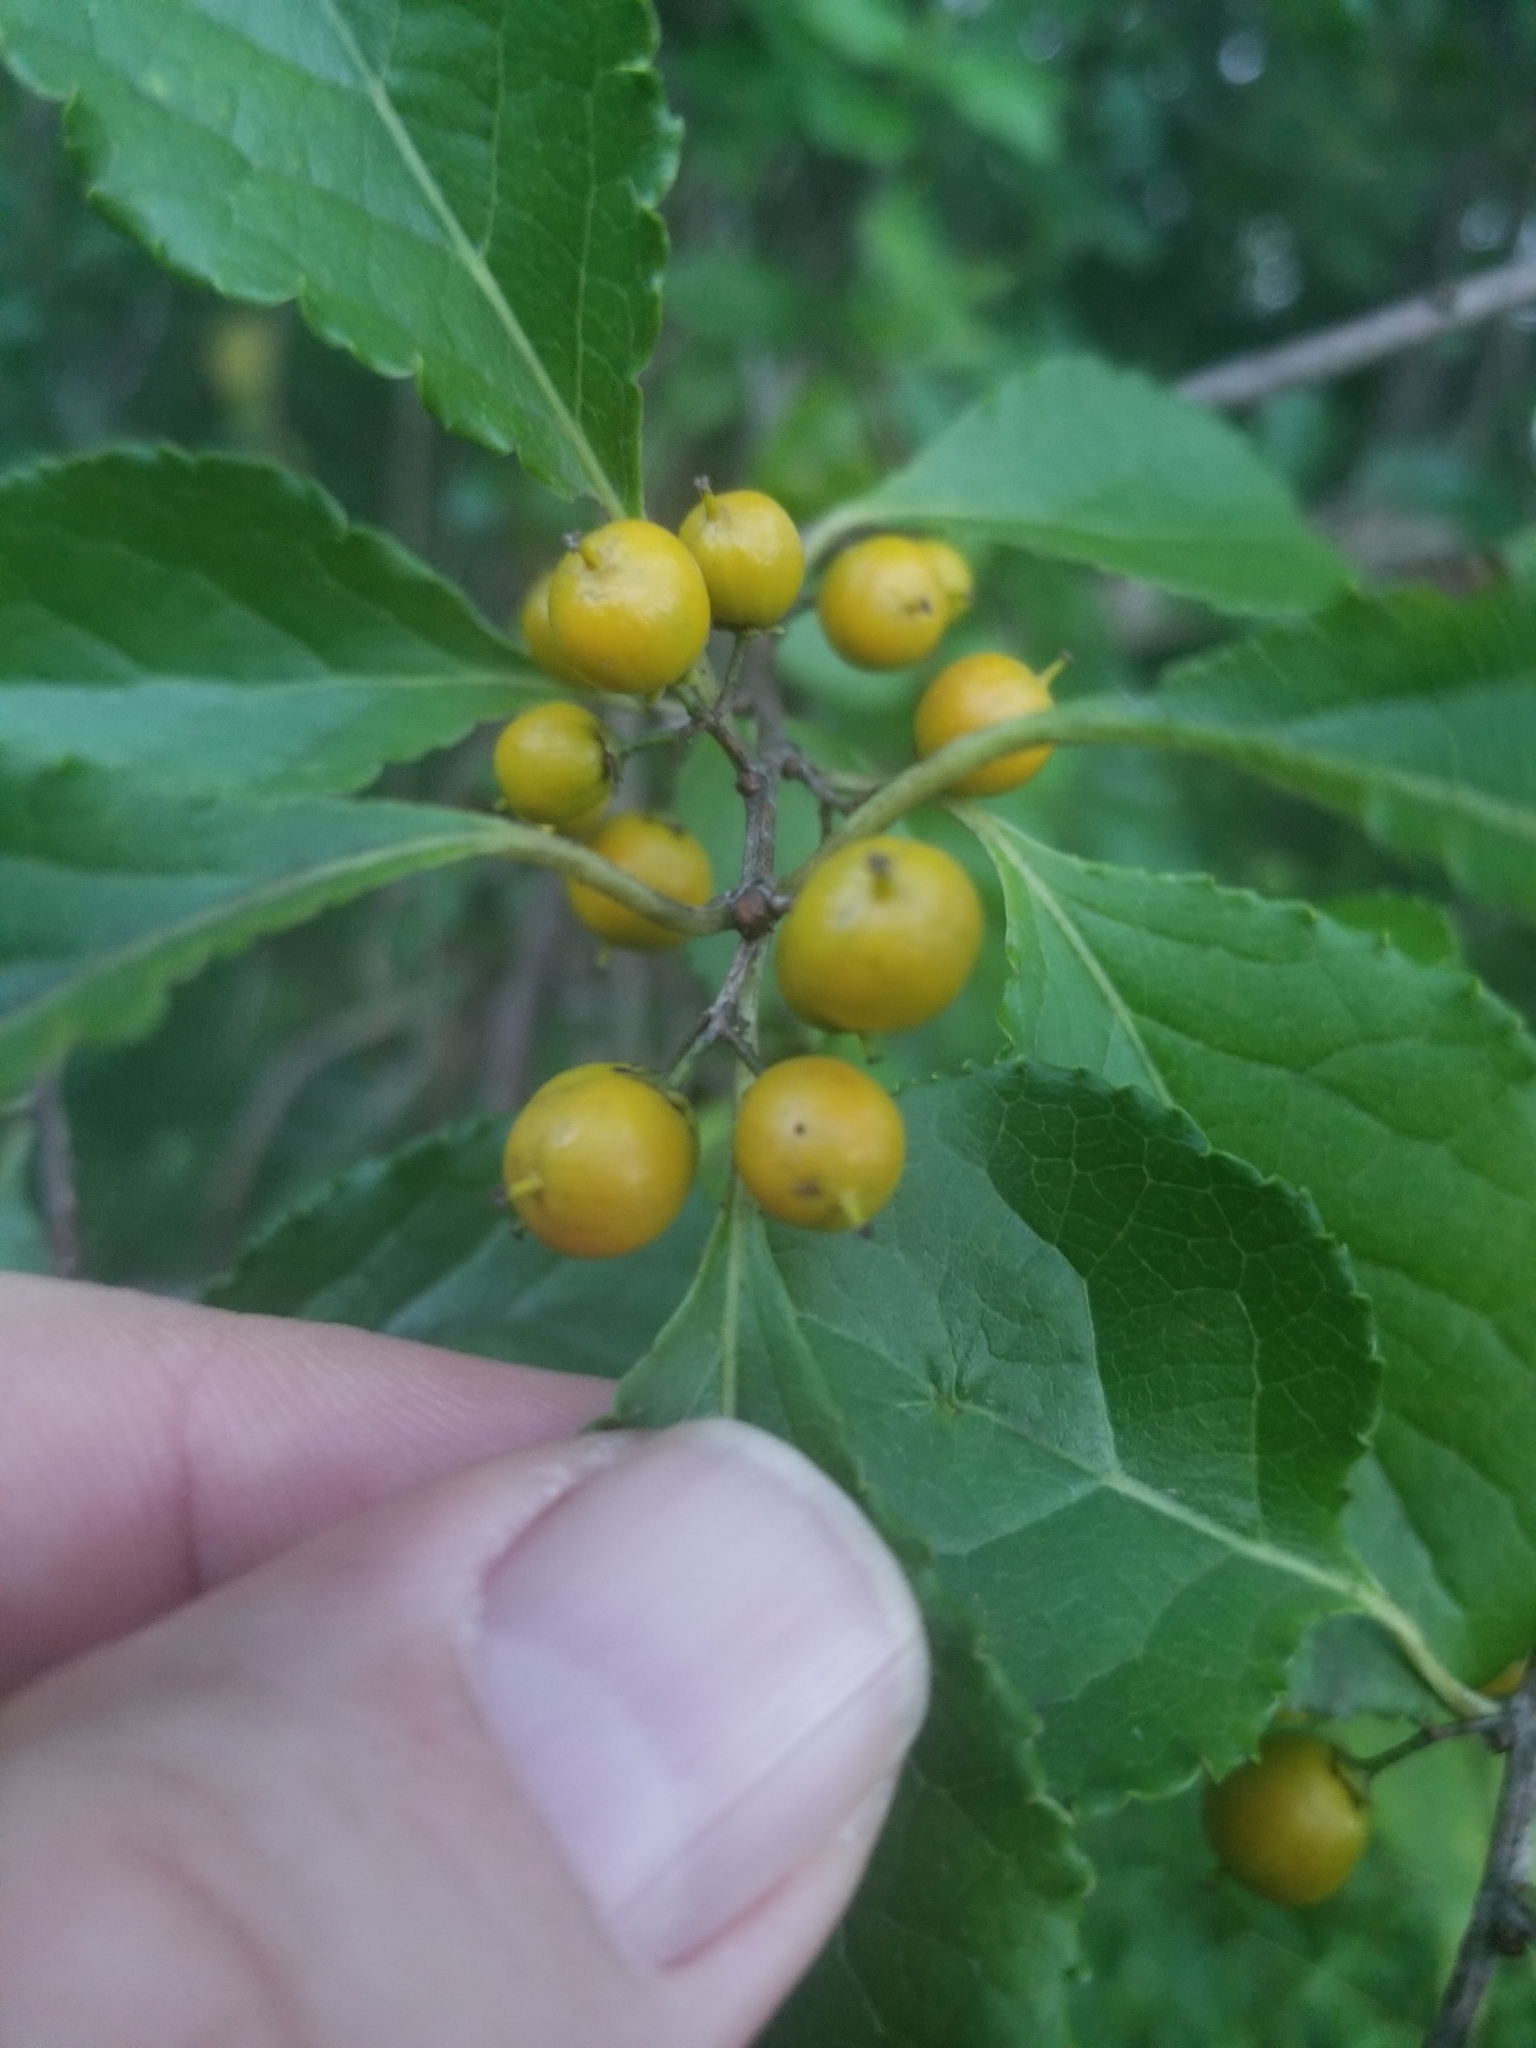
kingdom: Plantae
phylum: Tracheophyta
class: Magnoliopsida
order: Celastrales
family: Celastraceae
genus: Celastrus
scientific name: Celastrus orbiculatus
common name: Oriental bittersweet
